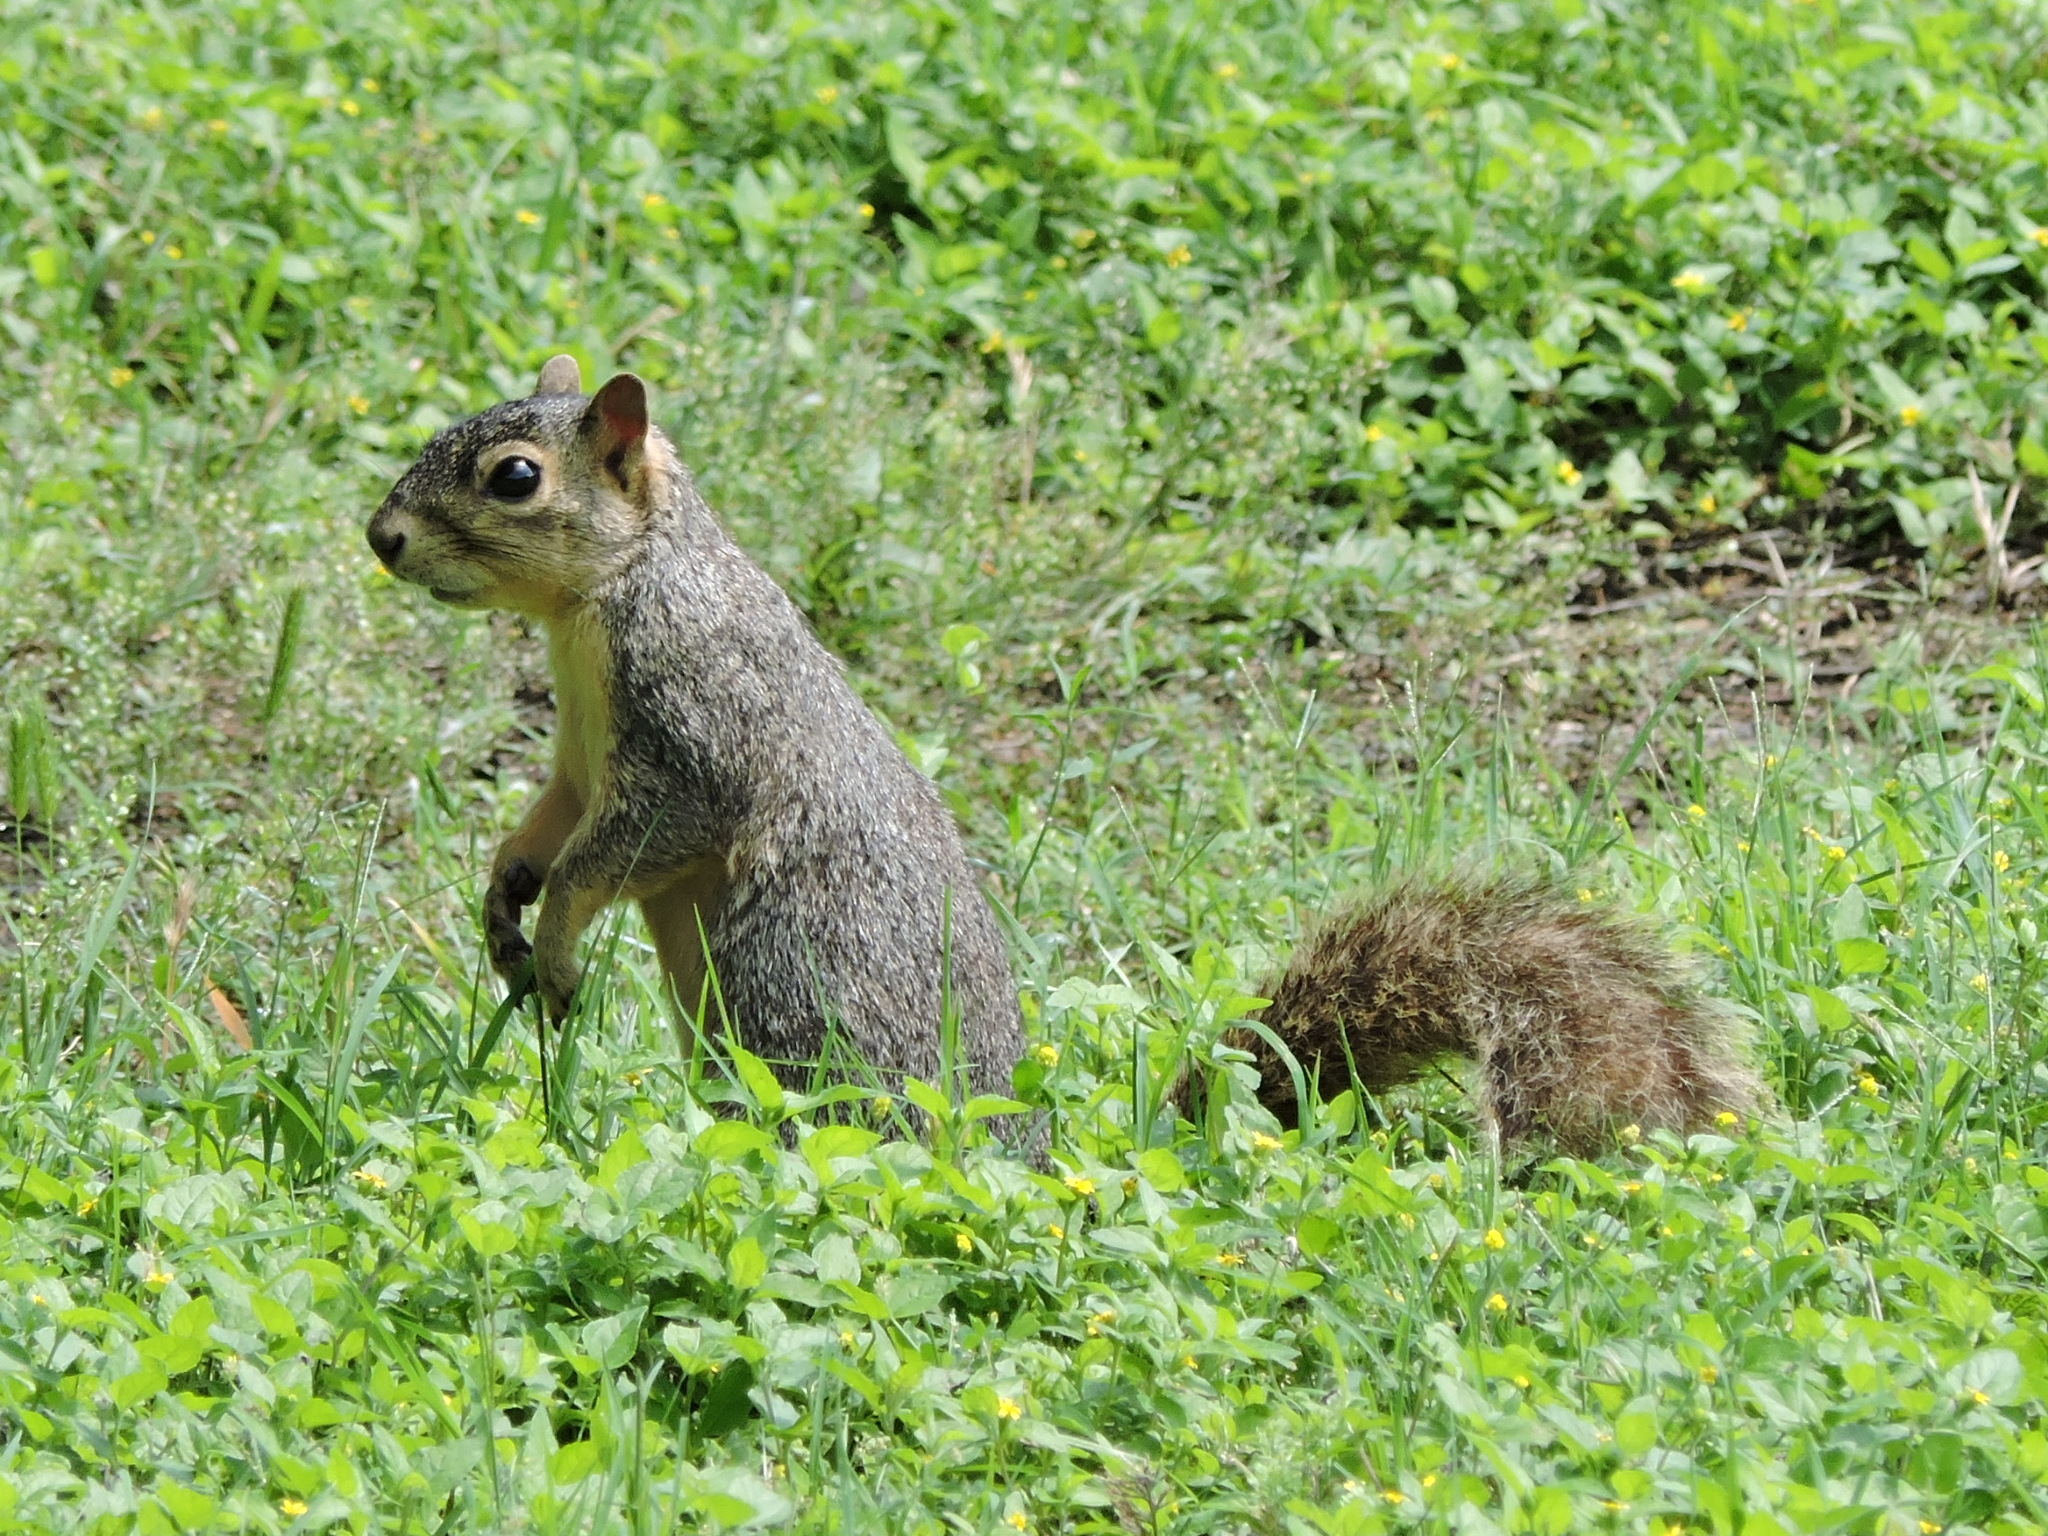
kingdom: Animalia
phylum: Chordata
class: Mammalia
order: Rodentia
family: Sciuridae
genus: Sciurus
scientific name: Sciurus niger
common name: Fox squirrel
